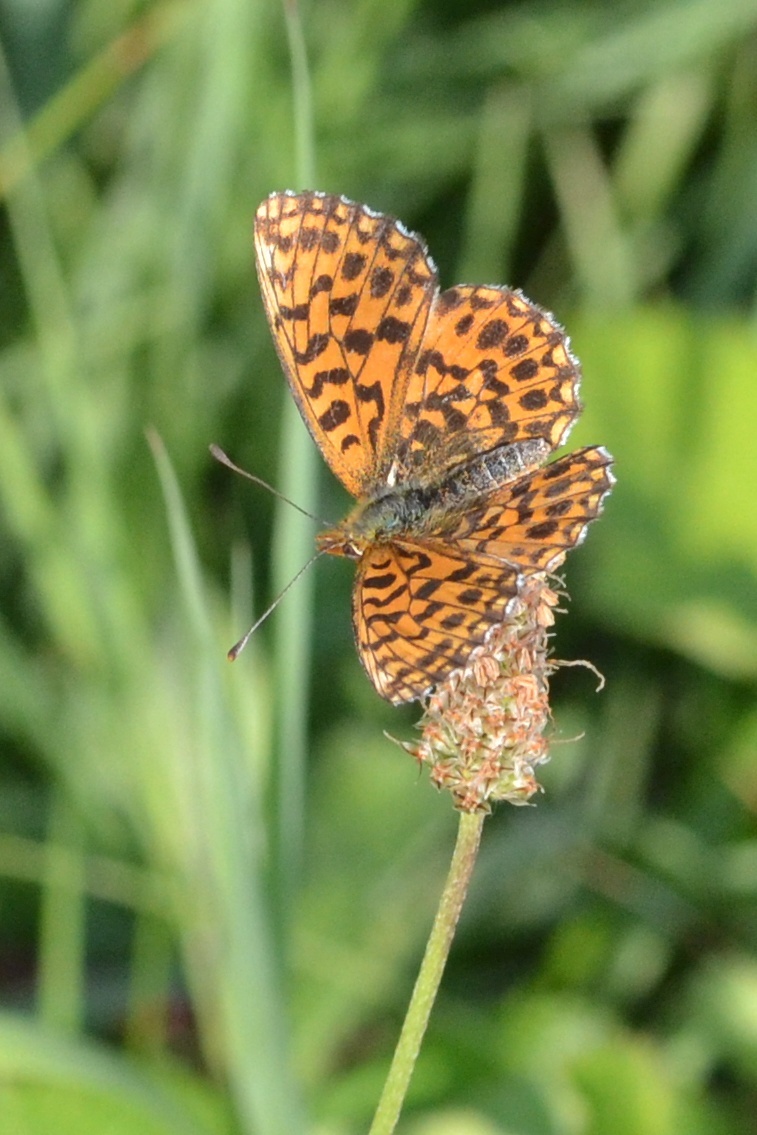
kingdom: Animalia
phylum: Arthropoda
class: Insecta
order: Lepidoptera
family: Nymphalidae
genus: Boloria
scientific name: Boloria dia
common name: Weaver's fritillary
